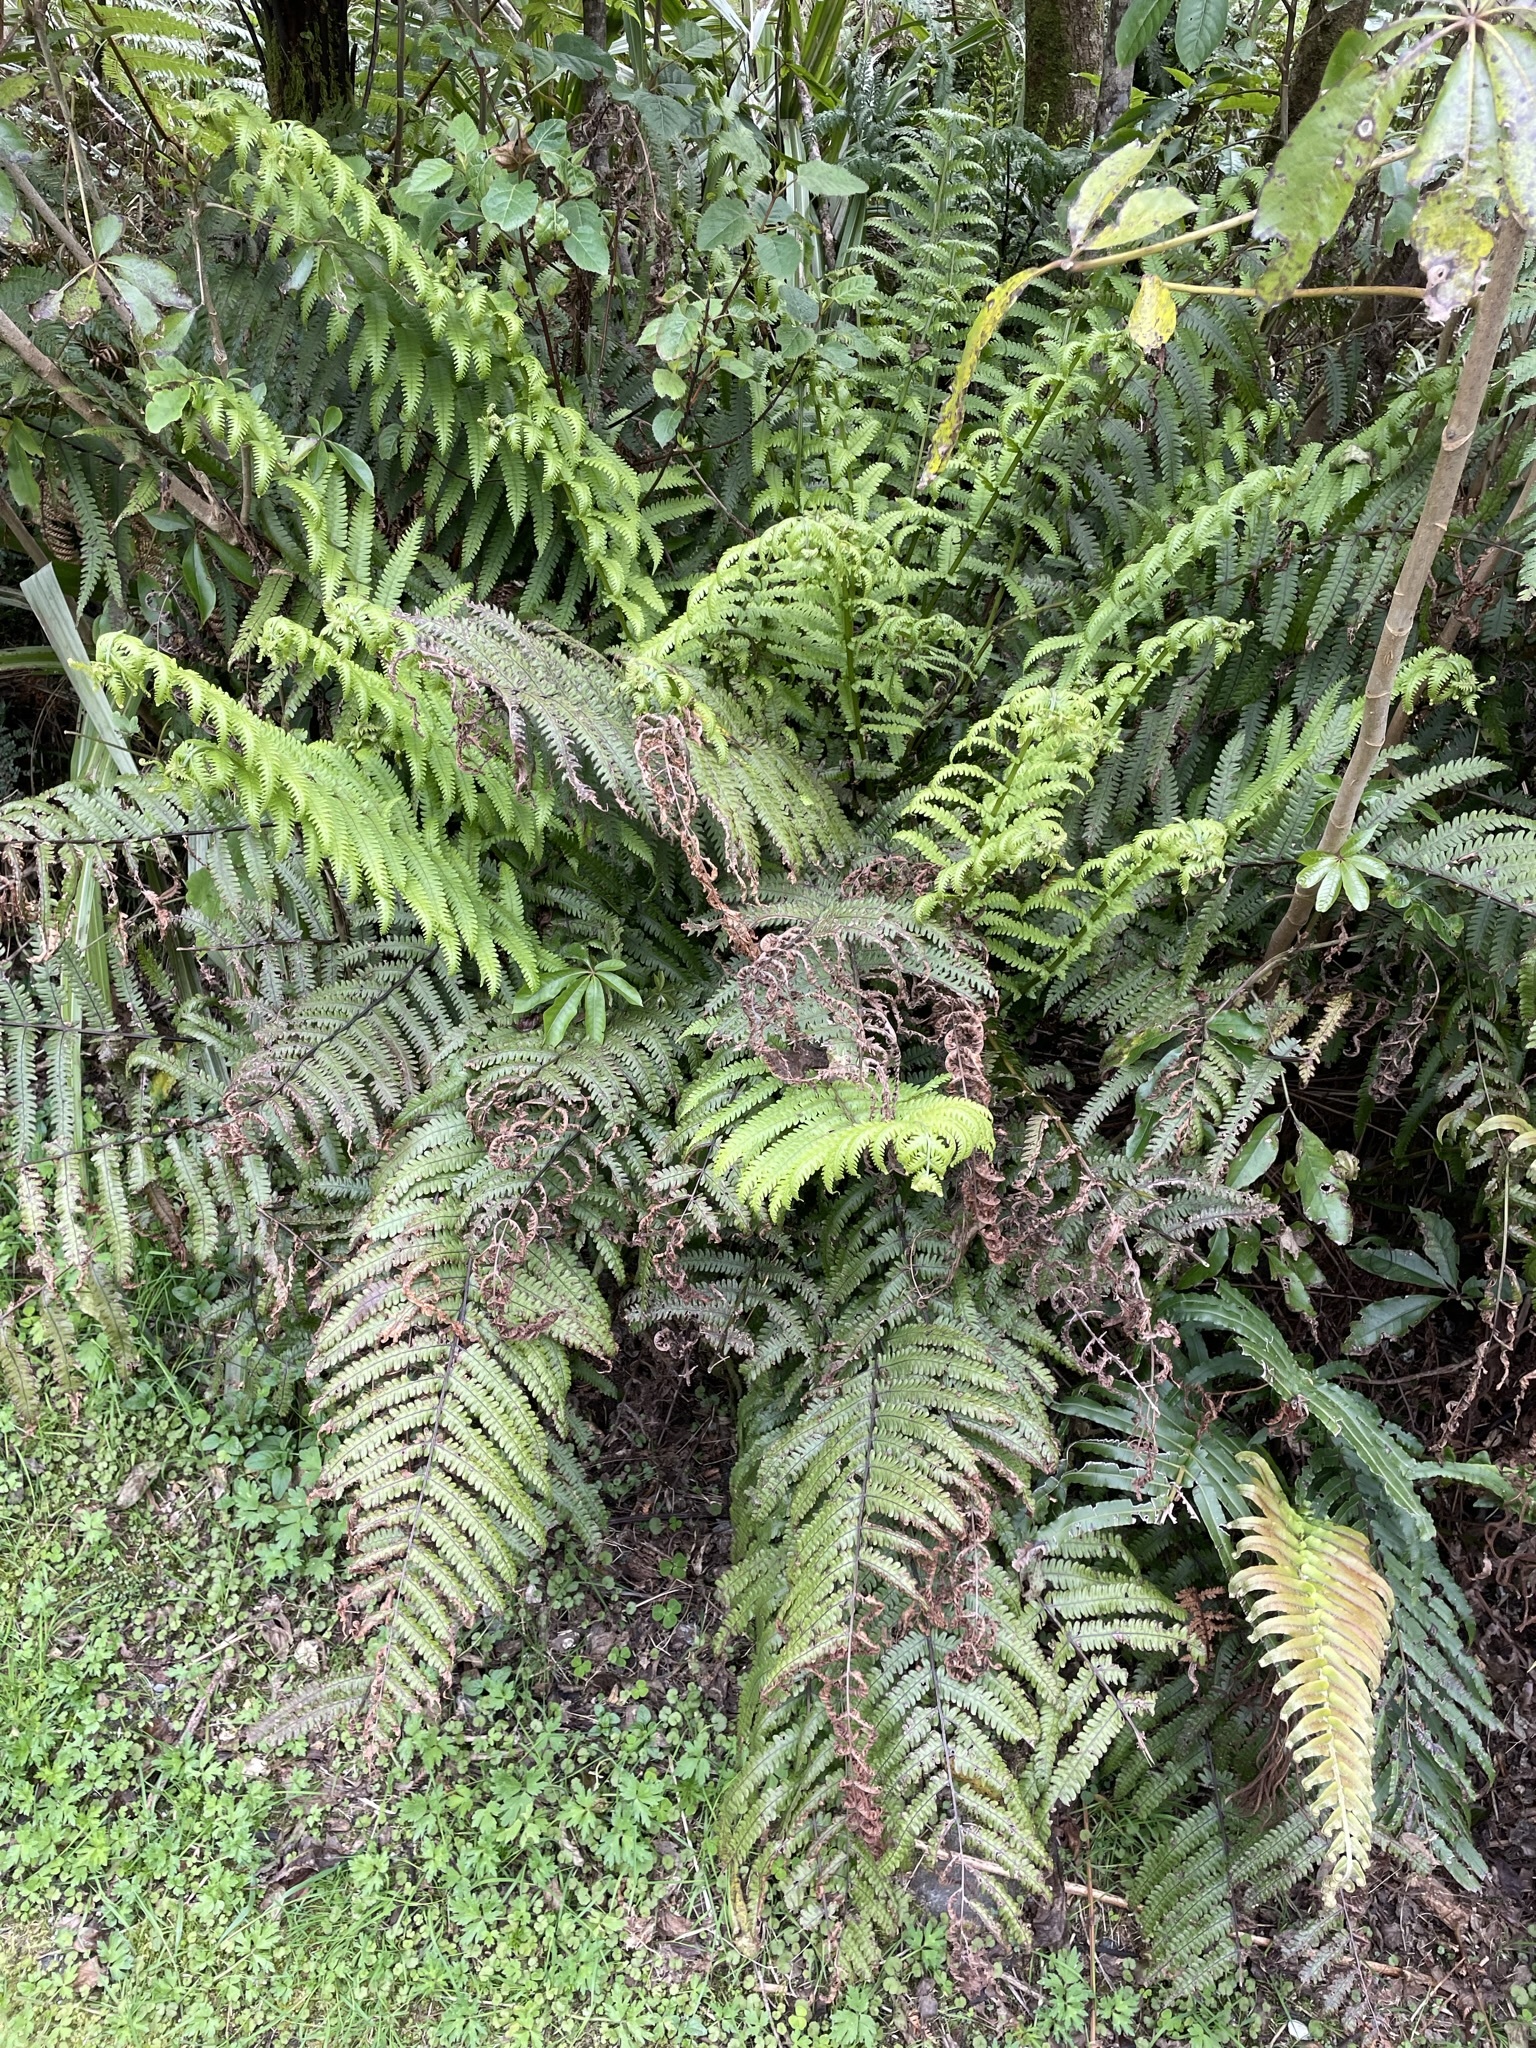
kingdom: Plantae
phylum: Tracheophyta
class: Polypodiopsida
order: Polypodiales
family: Thelypteridaceae
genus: Pakau
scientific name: Pakau pennigera
